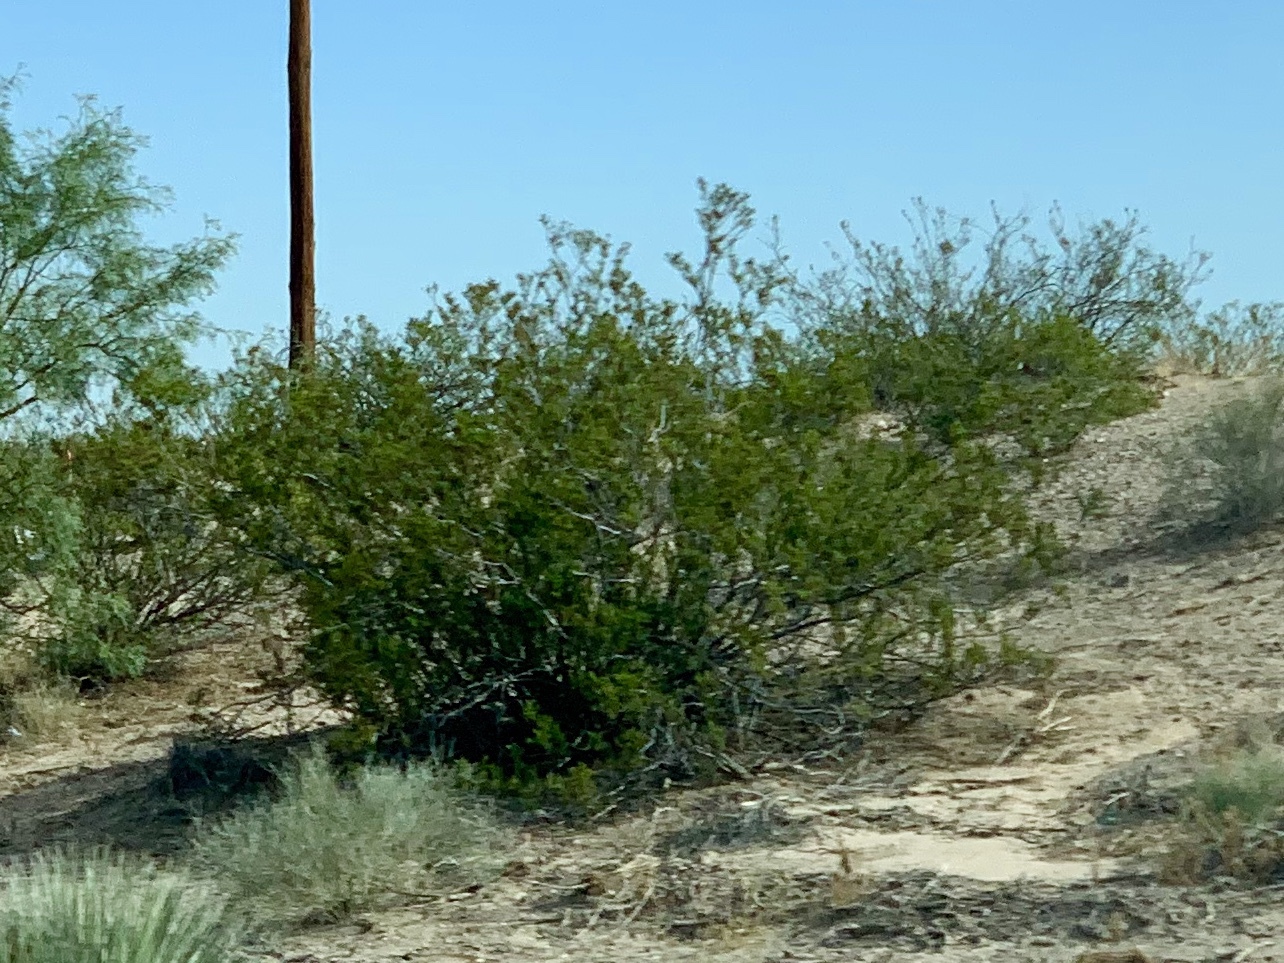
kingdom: Plantae
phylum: Tracheophyta
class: Magnoliopsida
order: Zygophyllales
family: Zygophyllaceae
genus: Larrea
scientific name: Larrea tridentata
